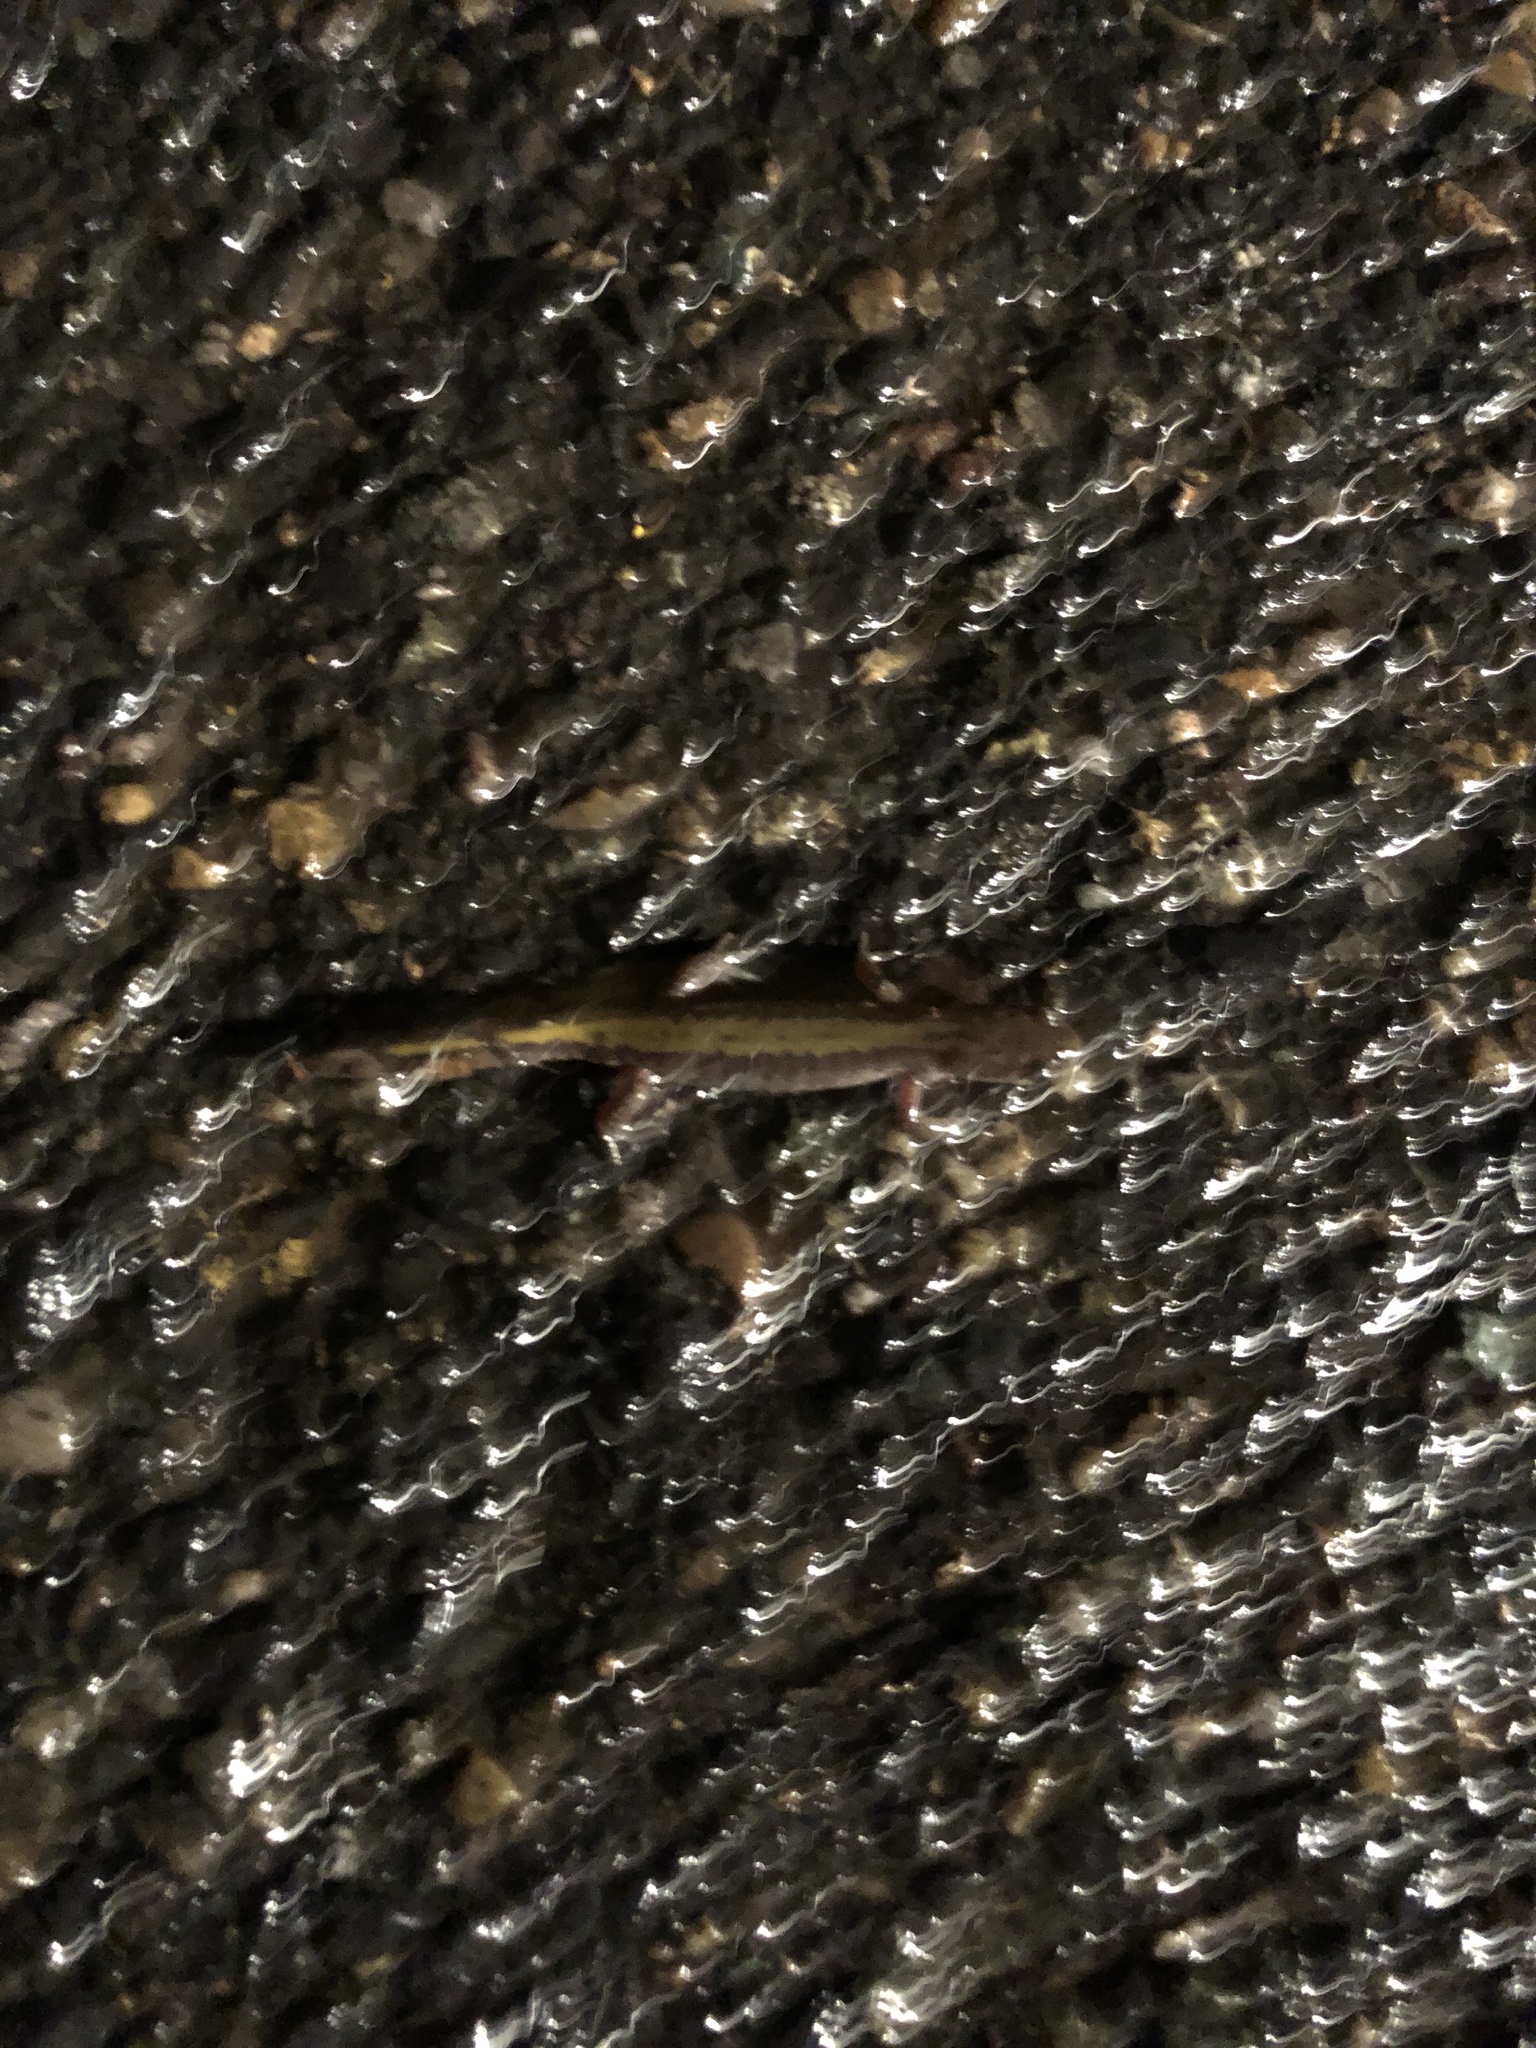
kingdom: Animalia
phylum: Chordata
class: Amphibia
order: Caudata
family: Ambystomatidae
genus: Ambystoma
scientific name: Ambystoma macrodactylum
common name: Long-toed salamander
